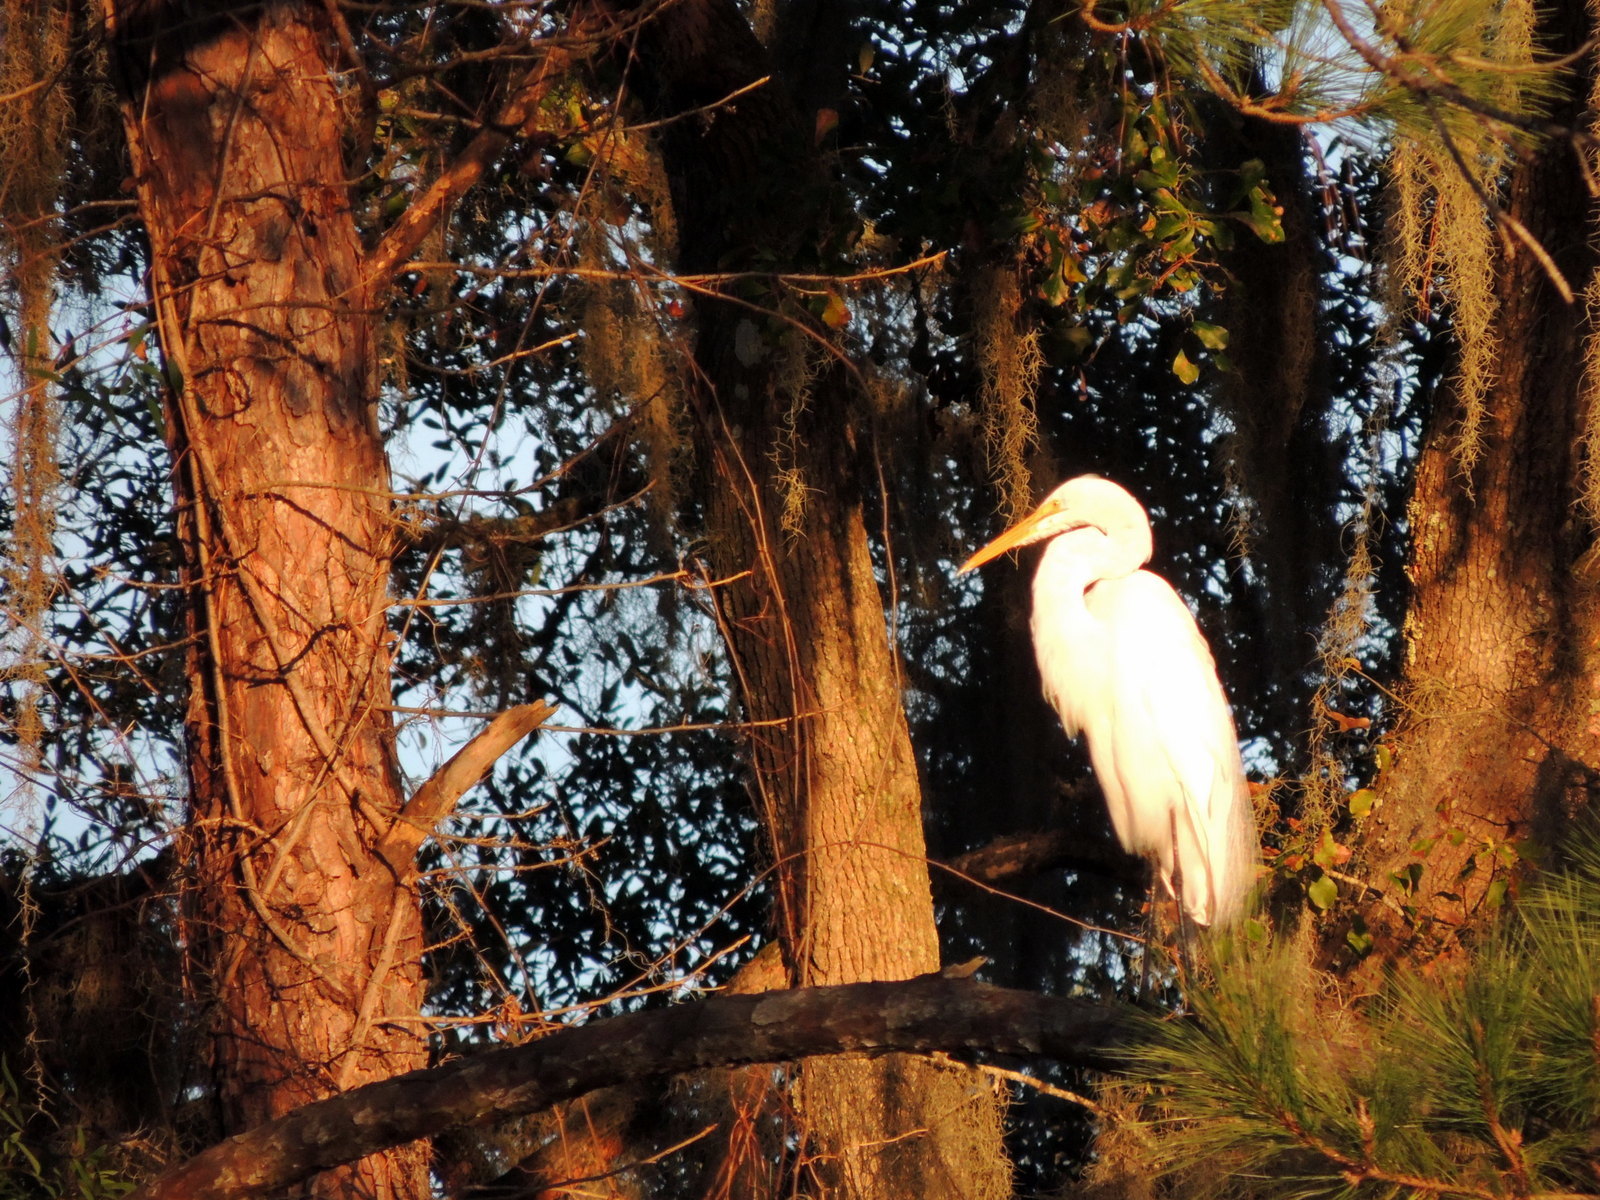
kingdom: Animalia
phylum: Chordata
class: Aves
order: Pelecaniformes
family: Ardeidae
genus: Ardea
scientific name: Ardea alba
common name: Great egret
